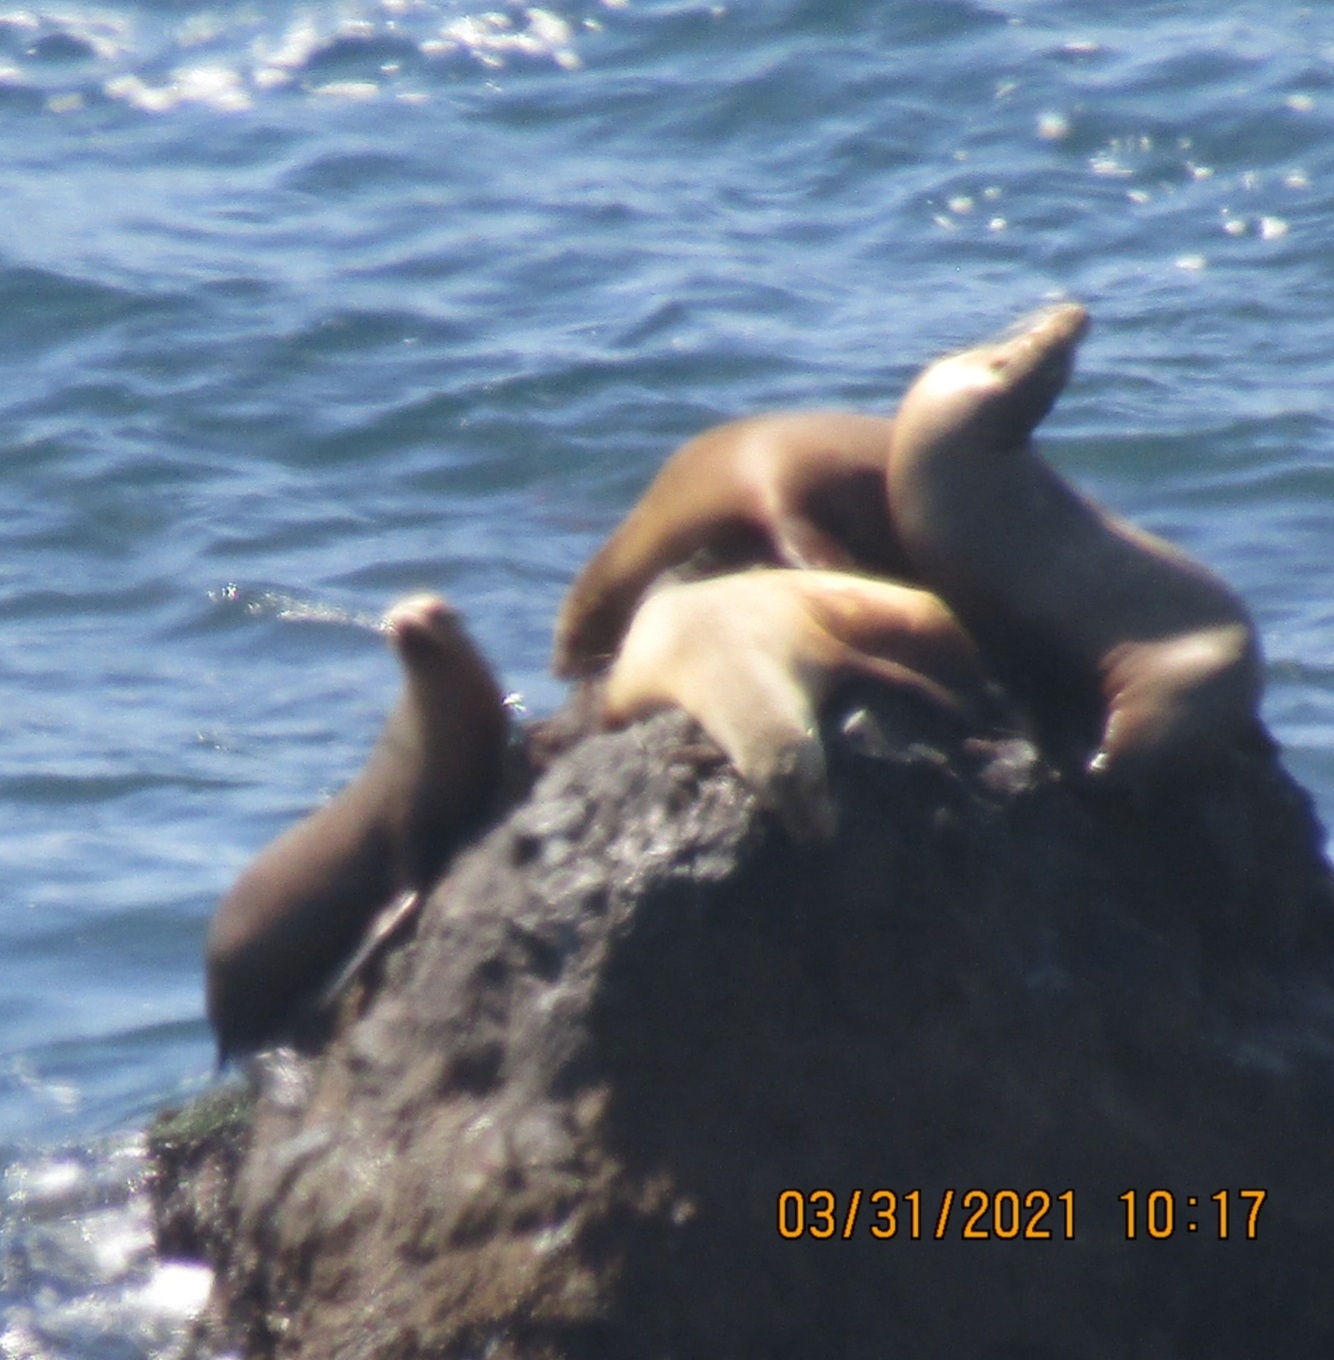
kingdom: Animalia
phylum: Chordata
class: Mammalia
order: Carnivora
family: Otariidae
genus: Zalophus
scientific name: Zalophus californianus
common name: California sea lion
